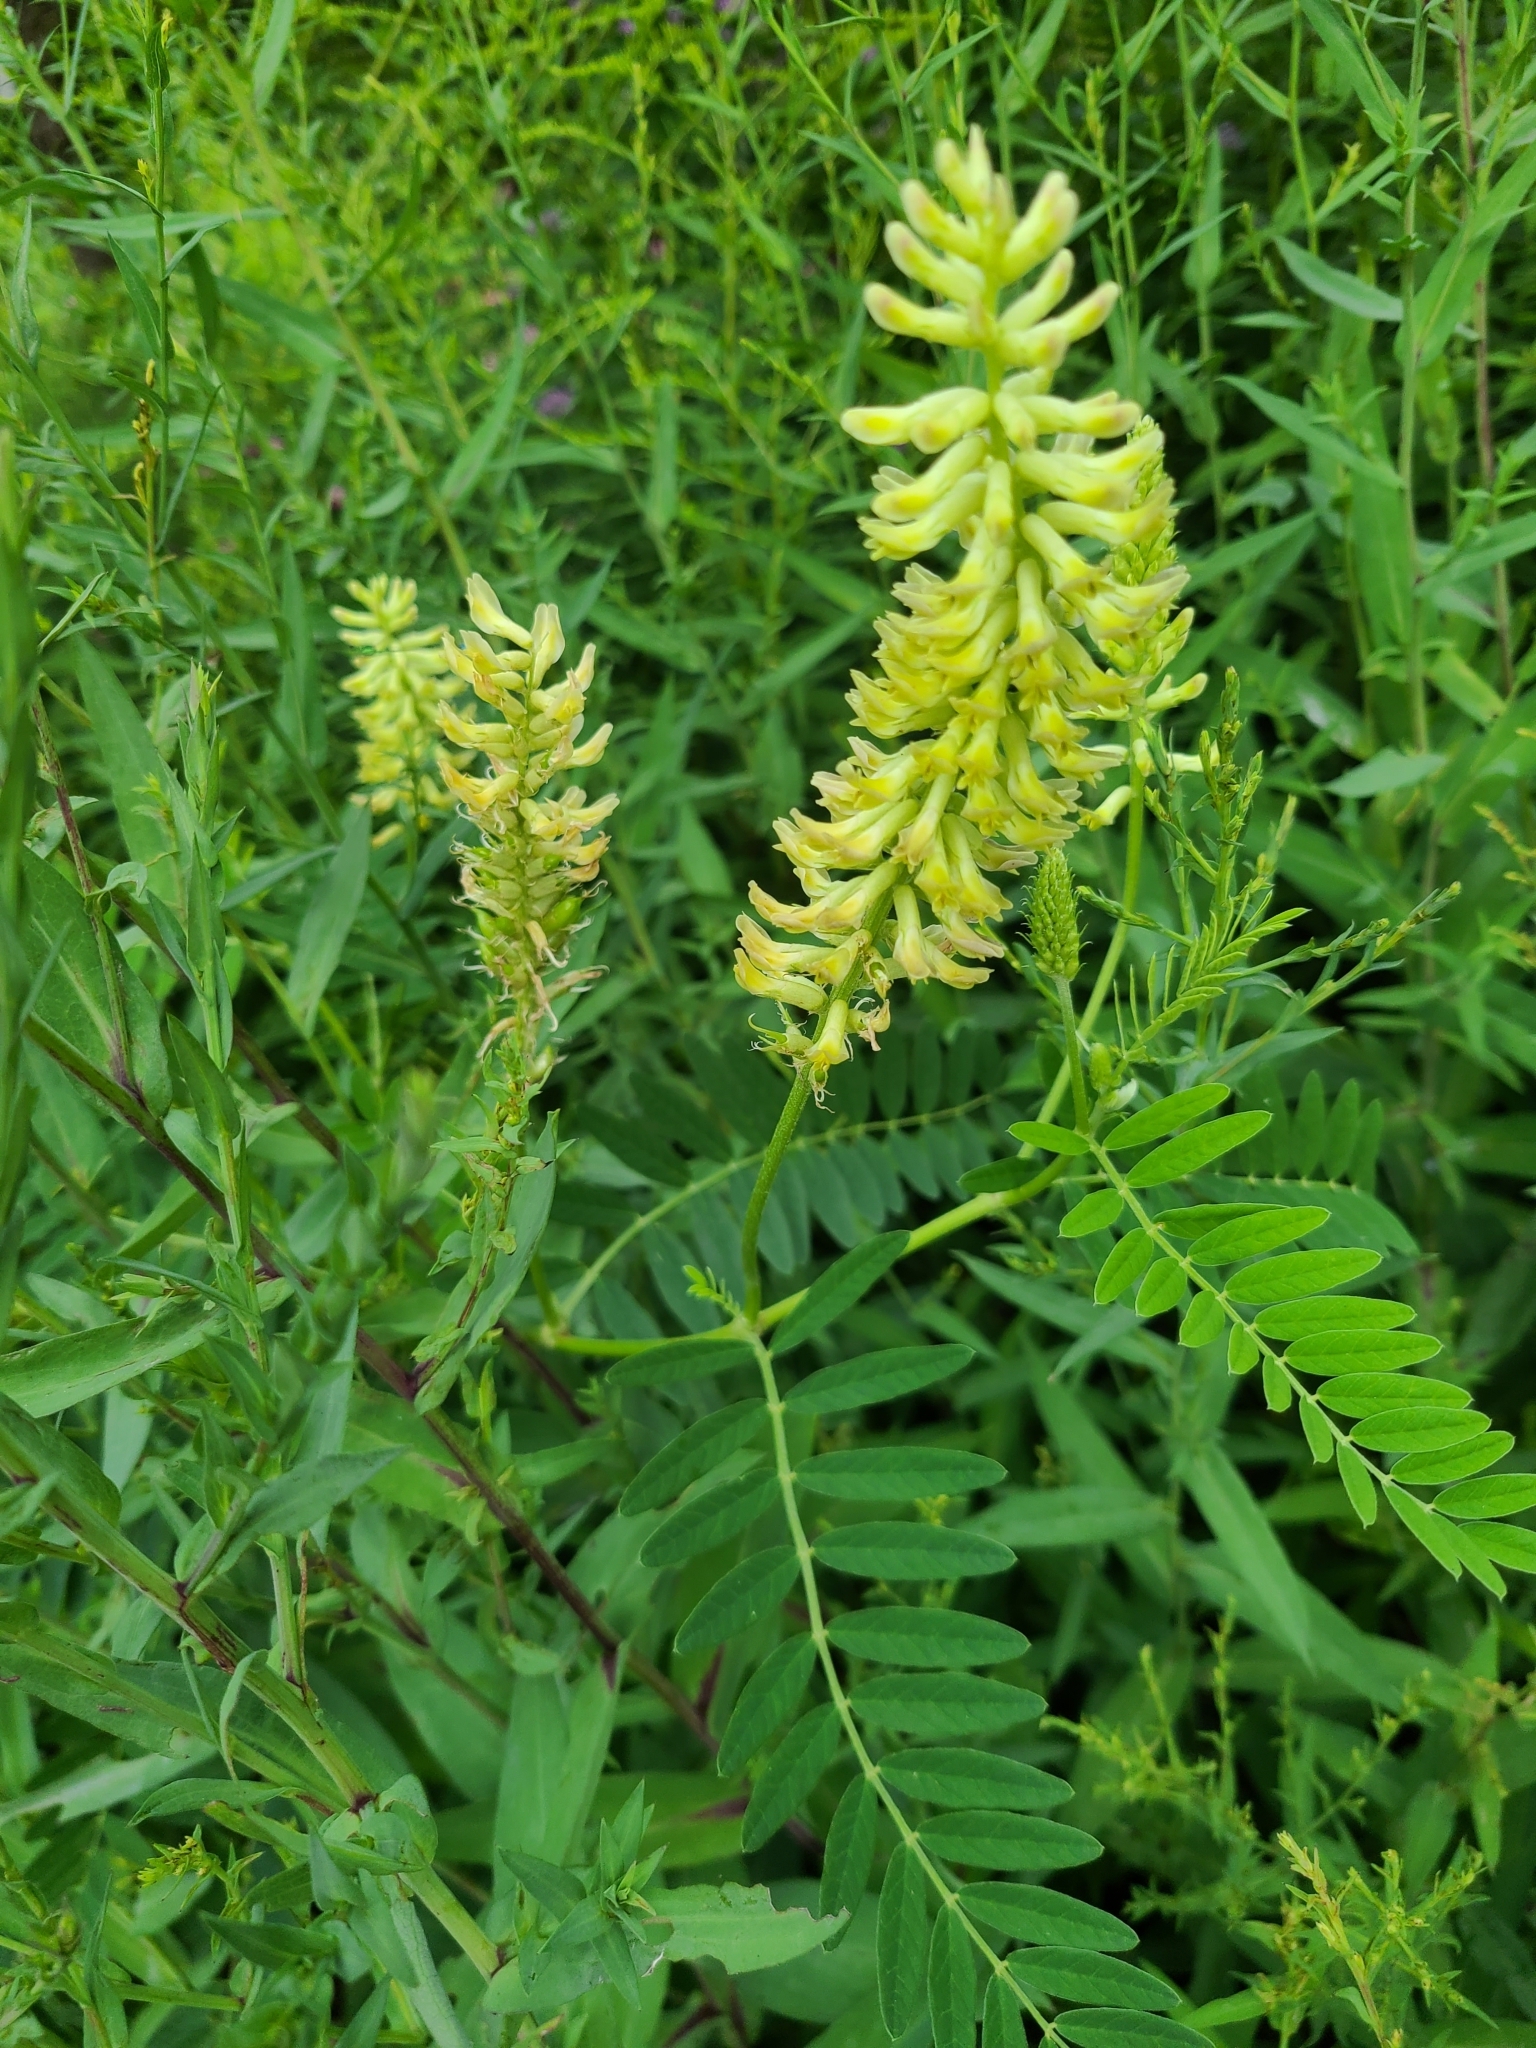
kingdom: Plantae
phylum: Tracheophyta
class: Magnoliopsida
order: Fabales
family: Fabaceae
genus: Astragalus
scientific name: Astragalus canadensis
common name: Canada milk-vetch
